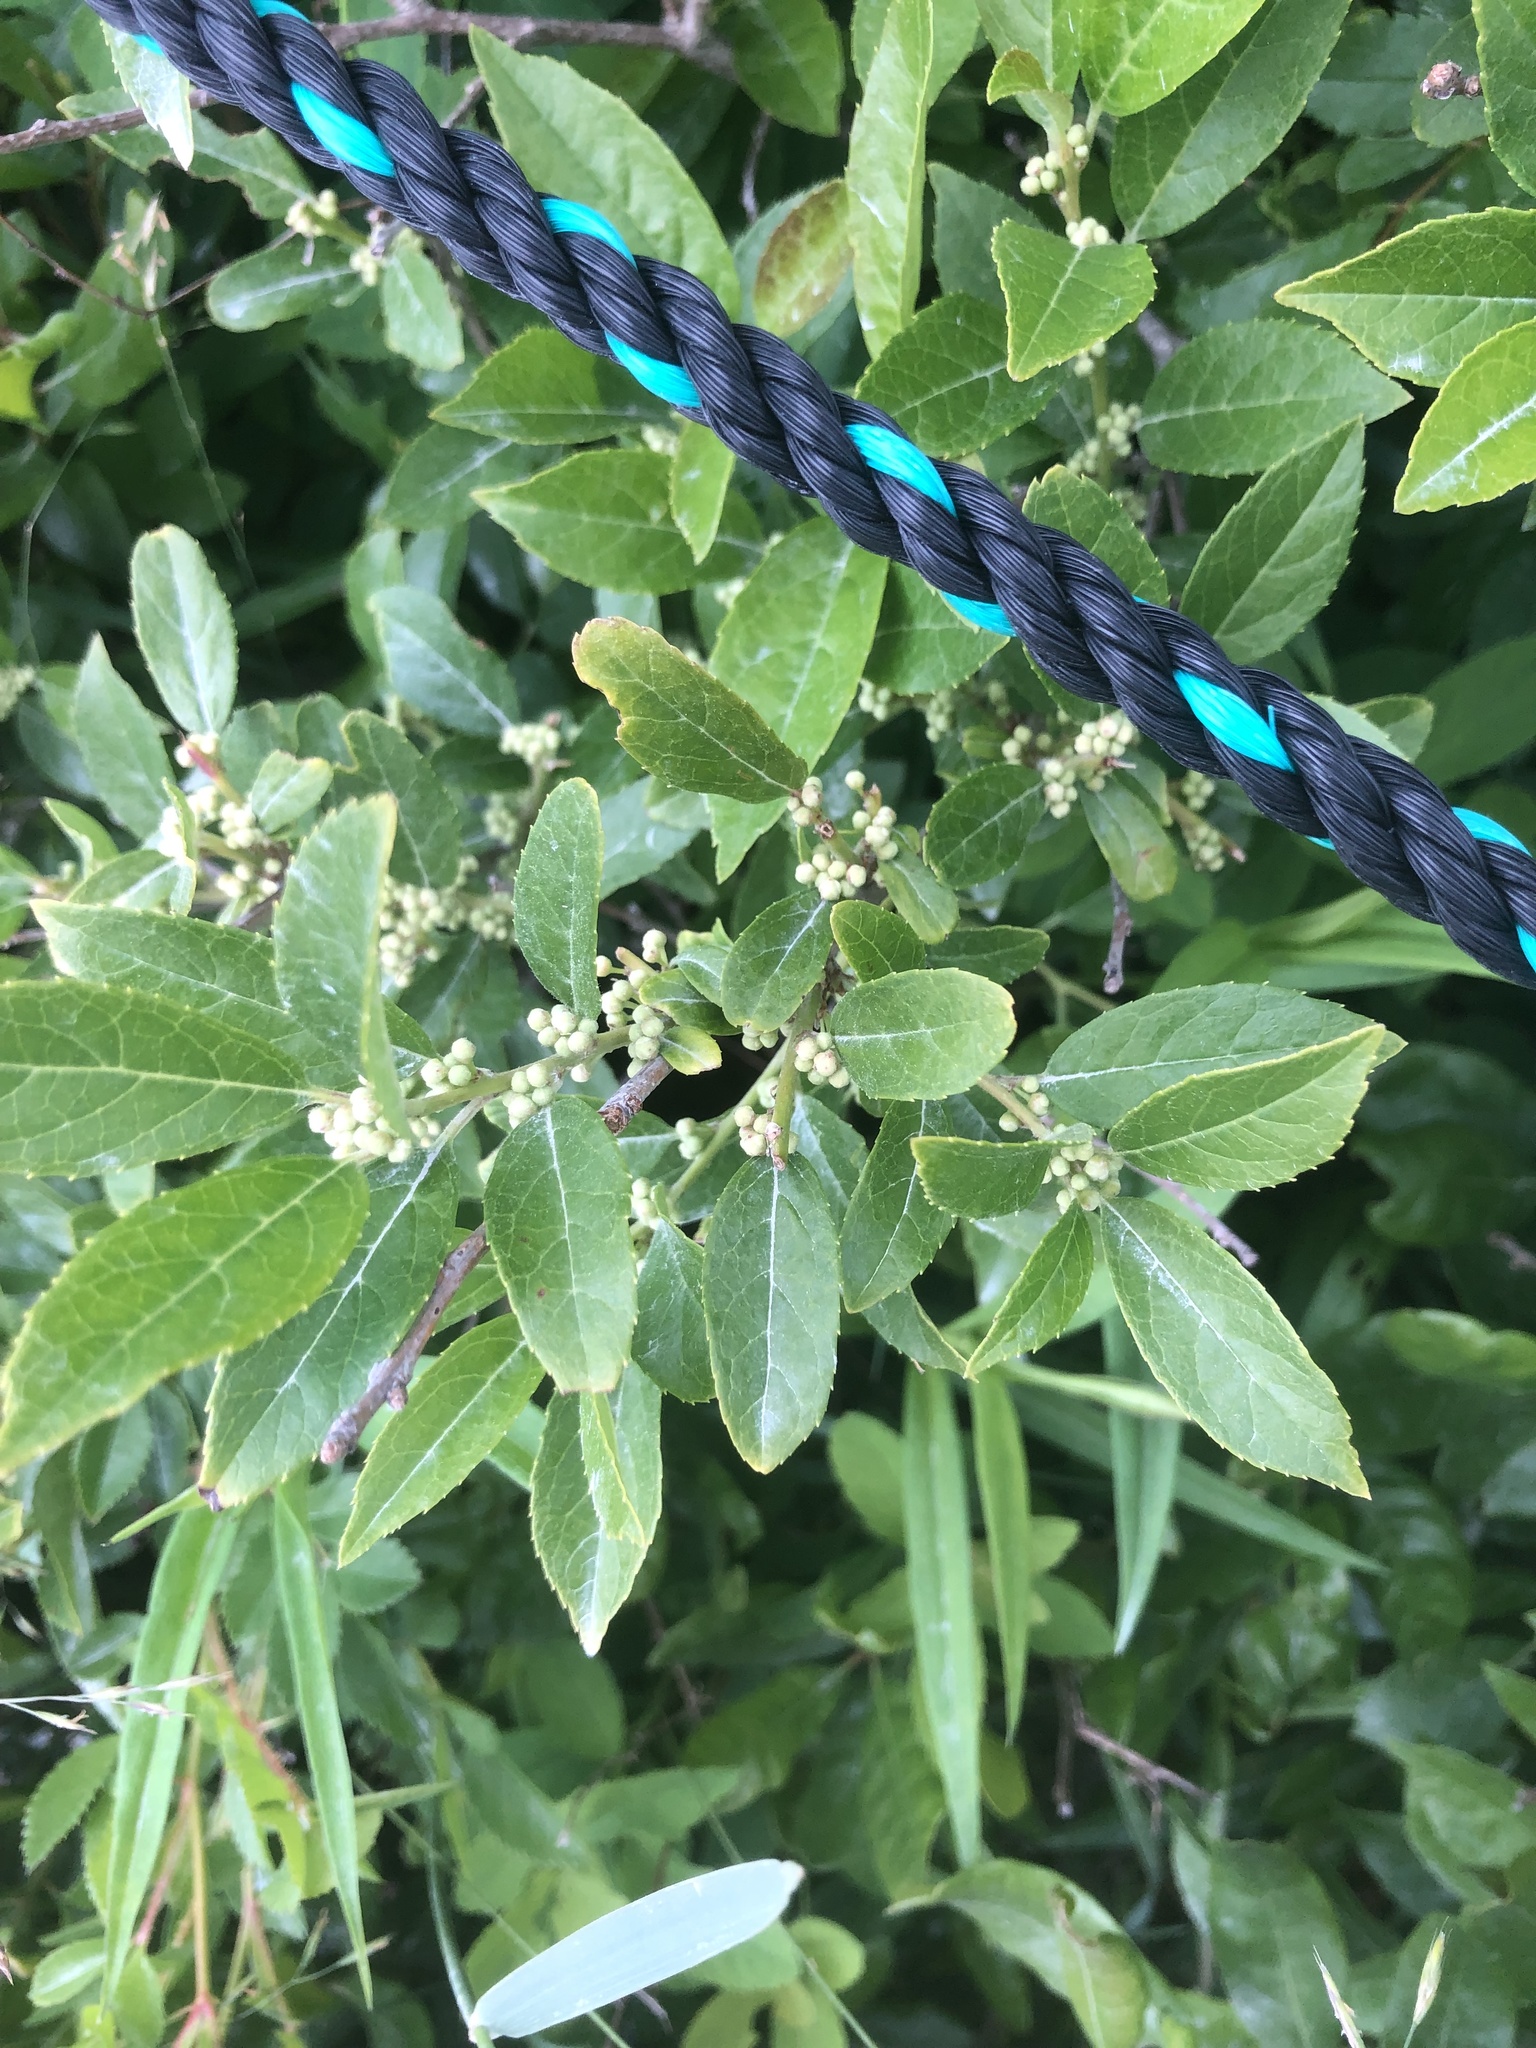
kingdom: Plantae
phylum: Tracheophyta
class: Magnoliopsida
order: Aquifoliales
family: Aquifoliaceae
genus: Ilex
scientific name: Ilex verticillata
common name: Virginia winterberry
